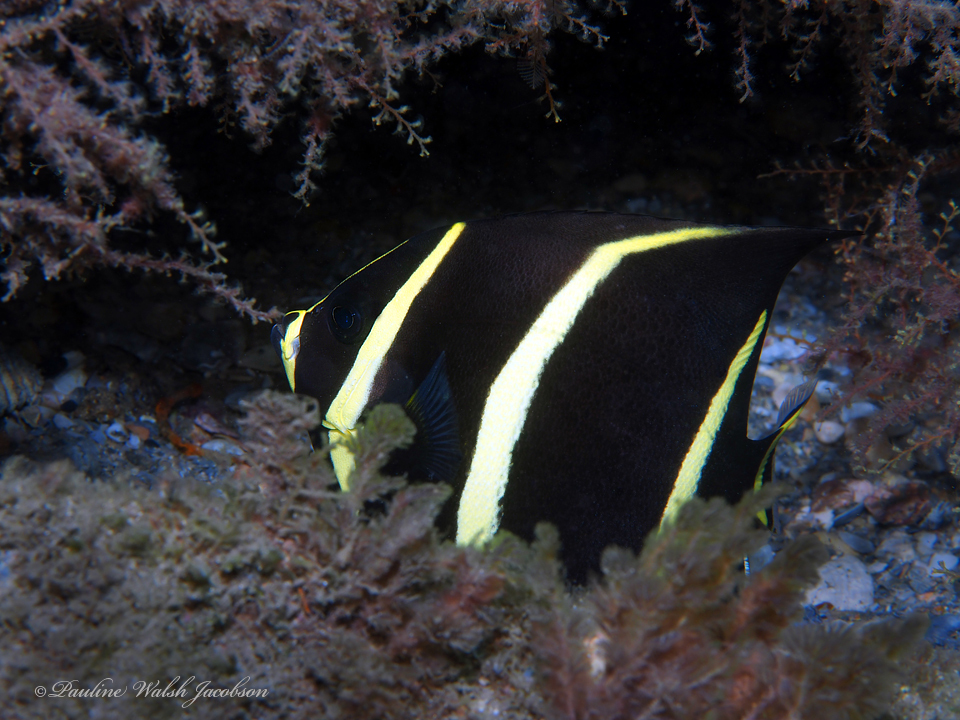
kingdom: Animalia
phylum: Chordata
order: Perciformes
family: Pomacanthidae
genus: Pomacanthus
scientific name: Pomacanthus arcuatus
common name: Gray angelfish
